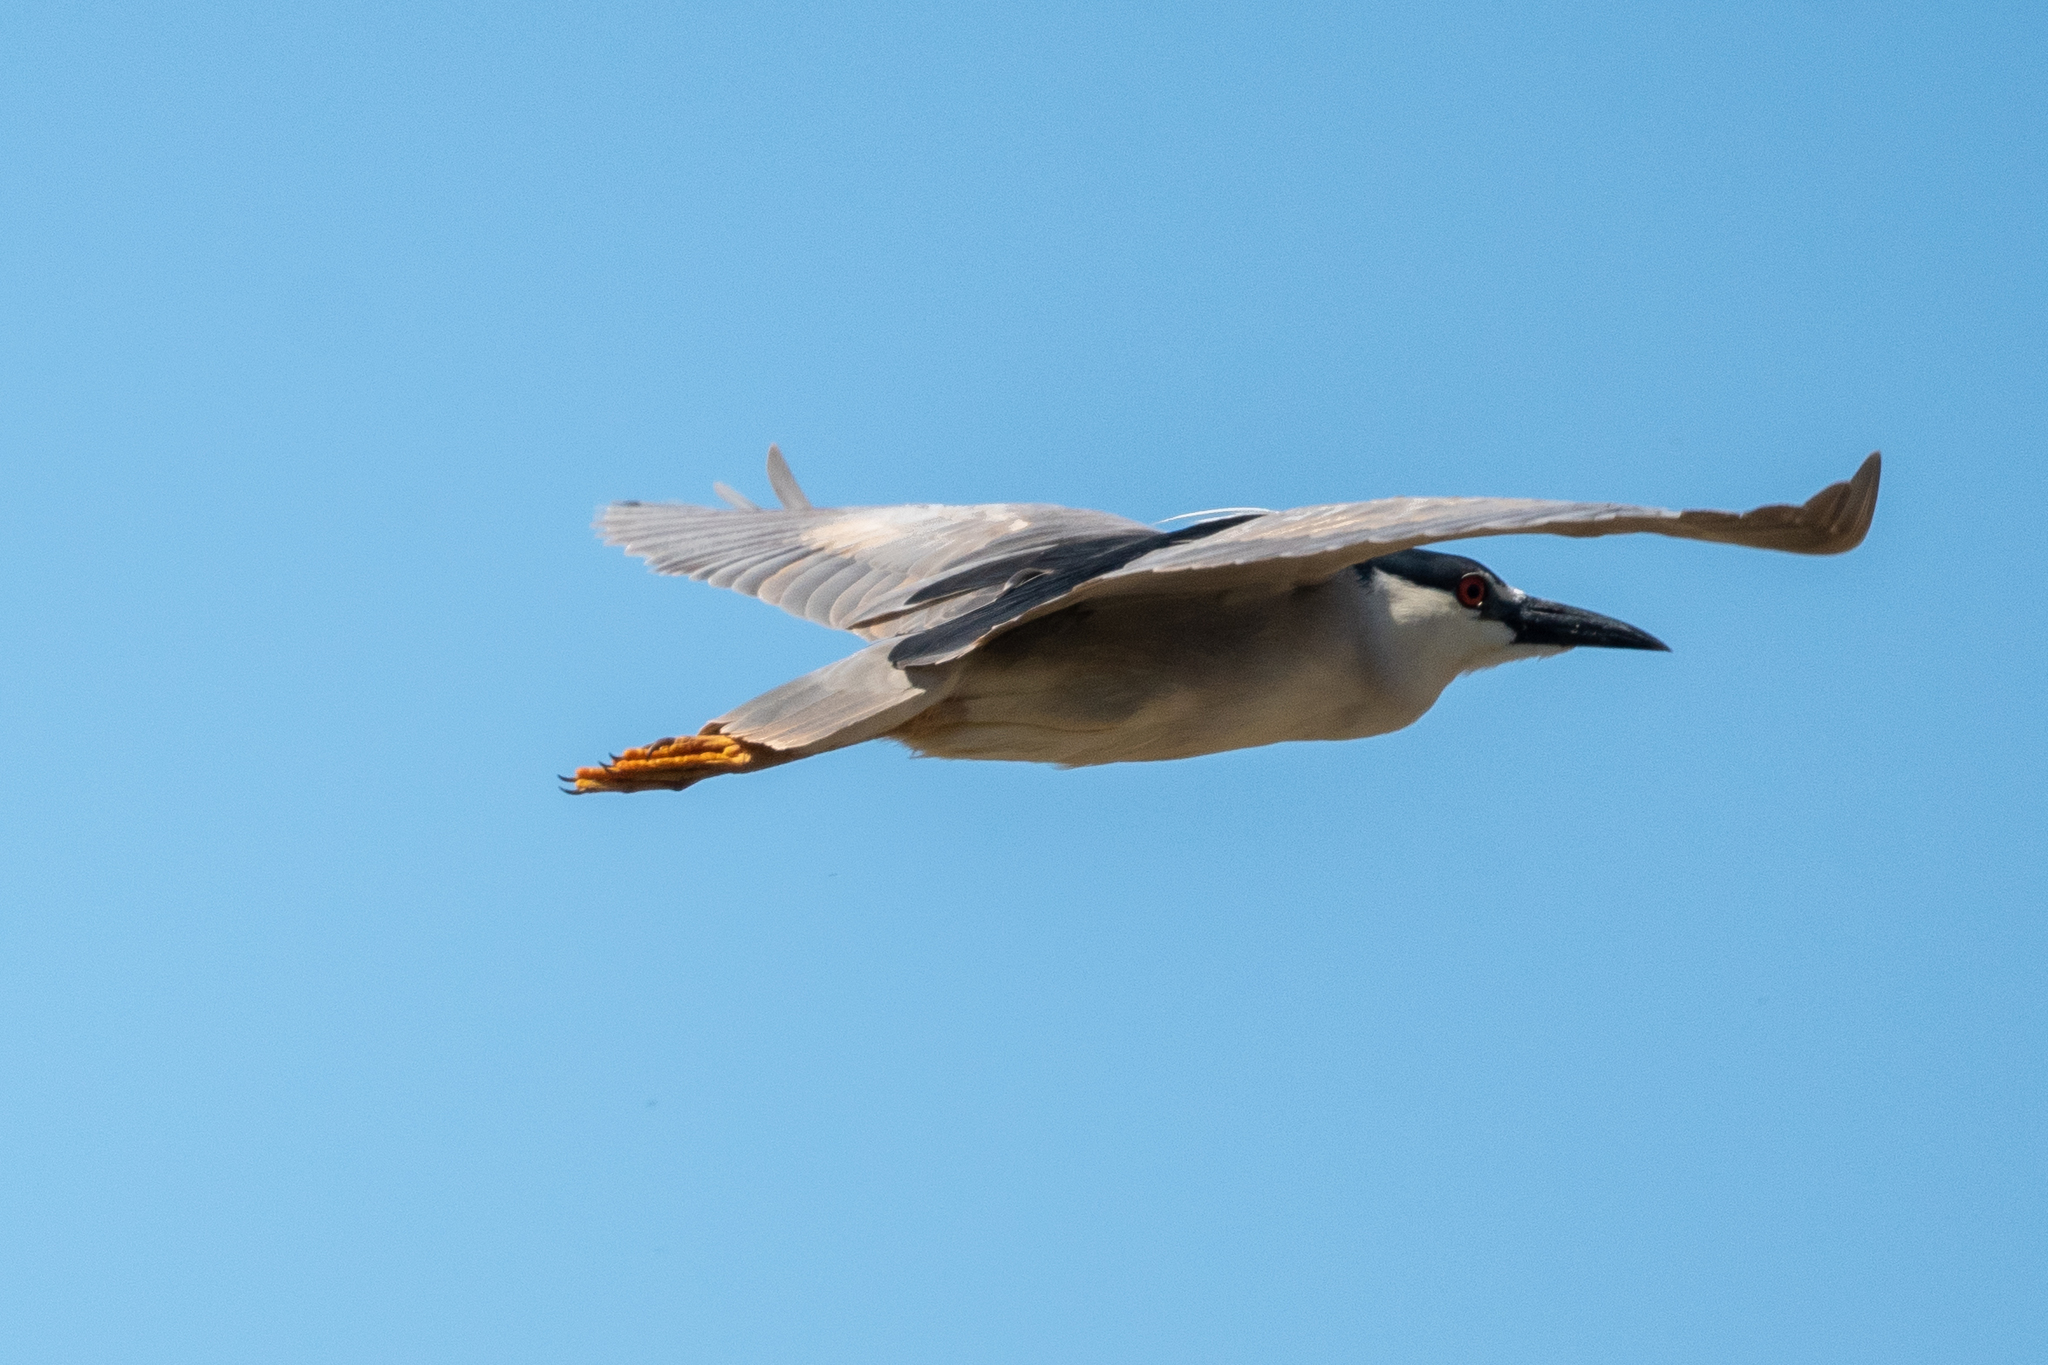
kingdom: Animalia
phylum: Chordata
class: Aves
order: Pelecaniformes
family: Ardeidae
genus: Nycticorax
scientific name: Nycticorax nycticorax
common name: Black-crowned night heron
